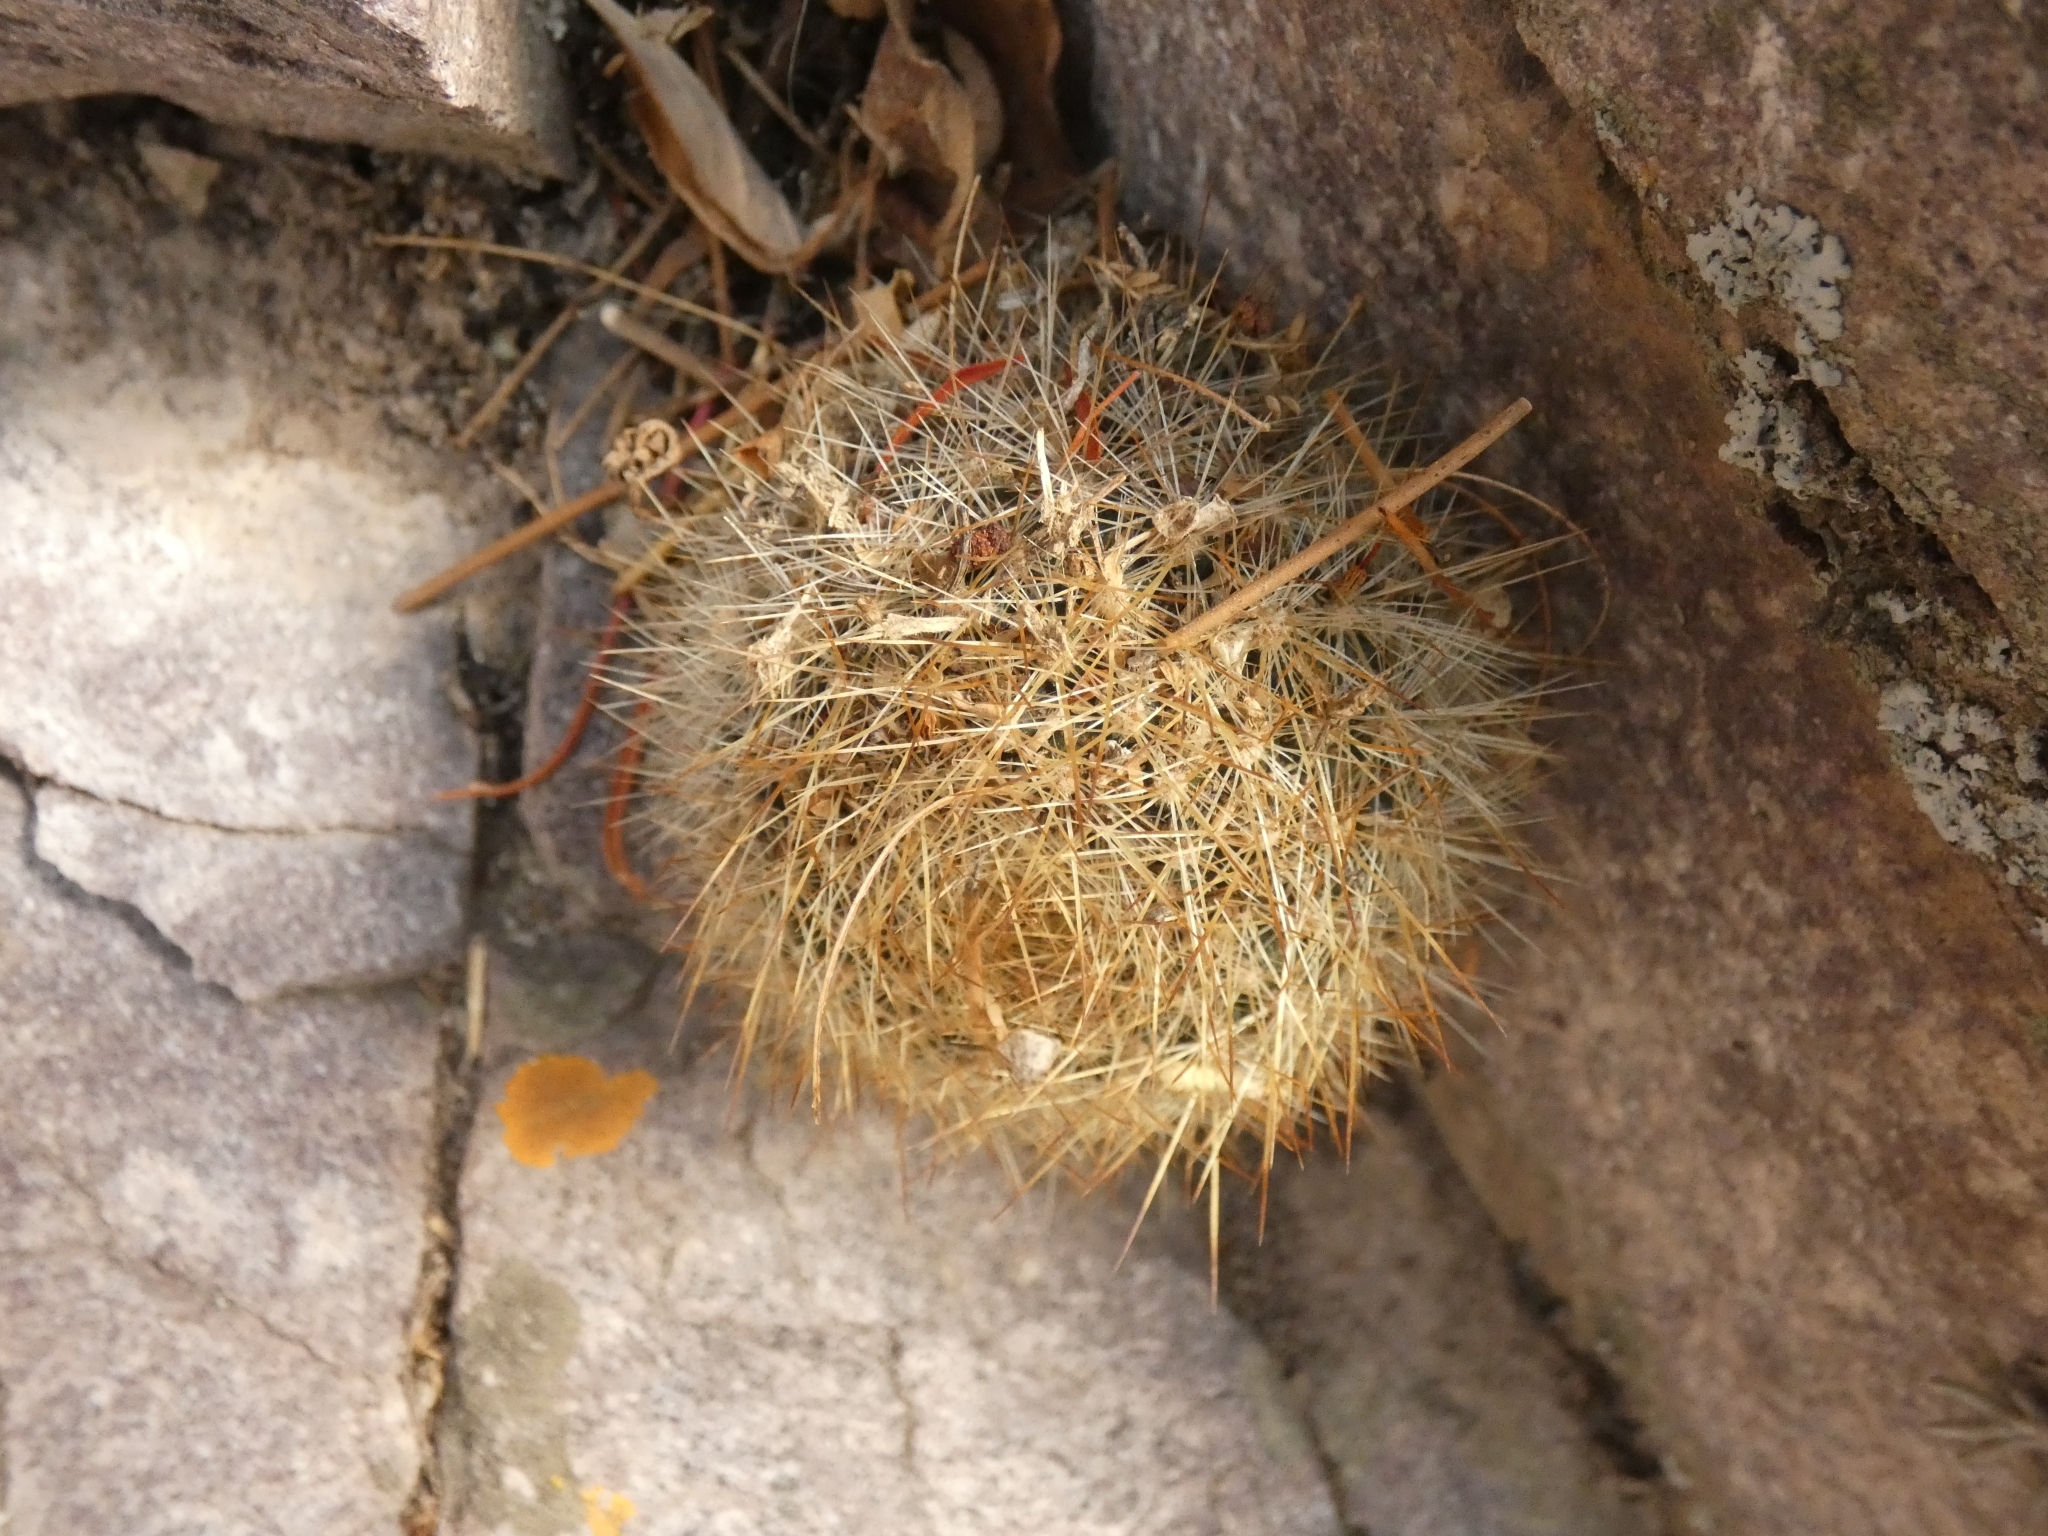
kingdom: Plantae
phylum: Tracheophyta
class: Magnoliopsida
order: Caryophyllales
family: Cactaceae
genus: Aylostera
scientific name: Aylostera deminuta
